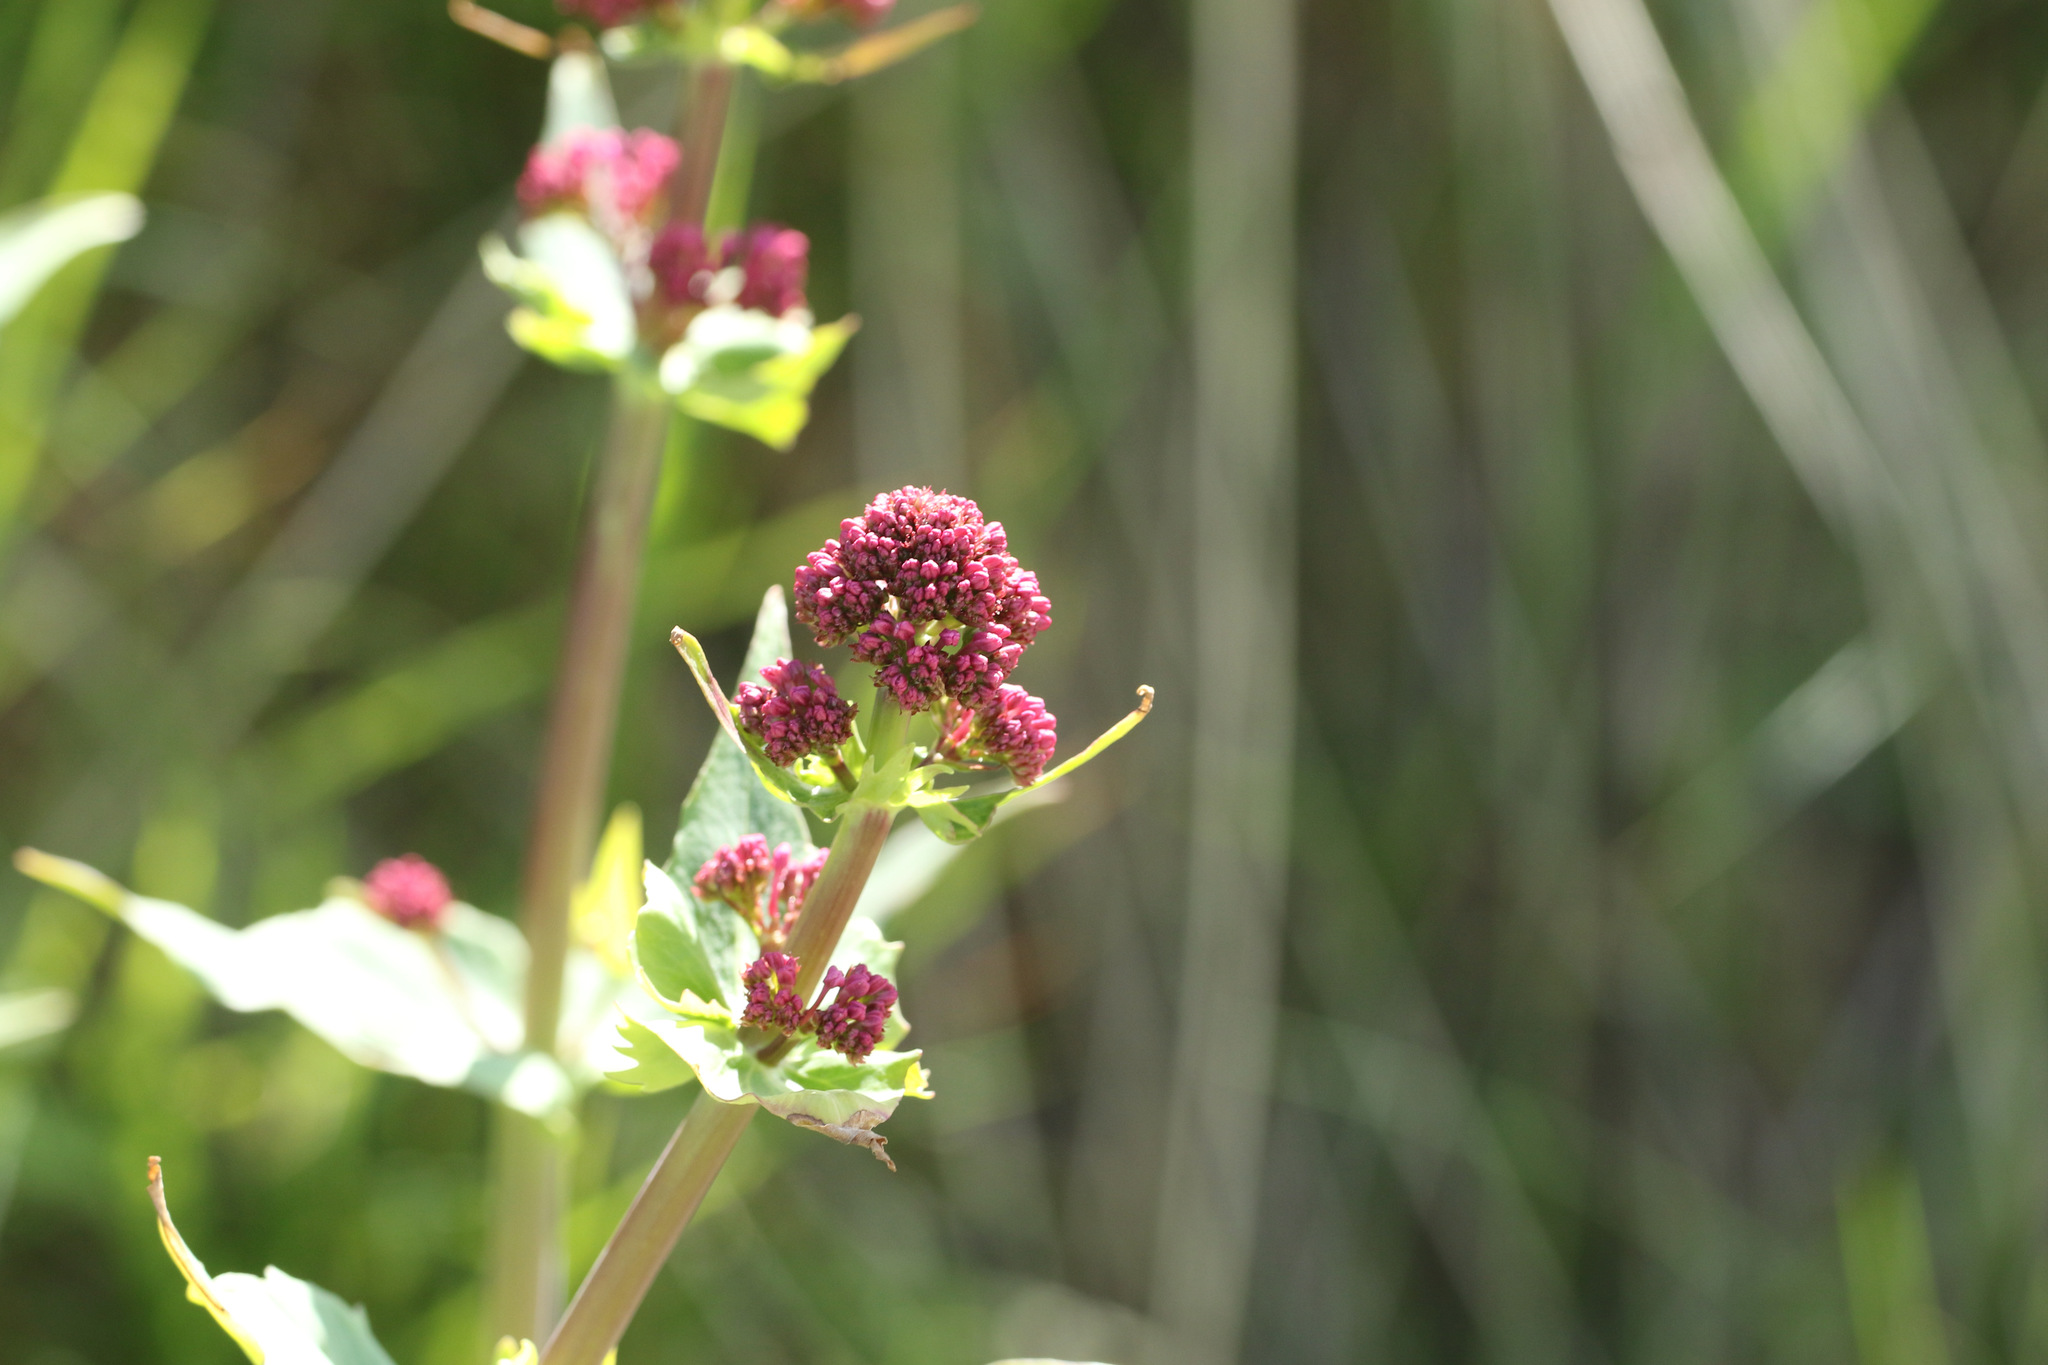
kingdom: Plantae
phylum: Tracheophyta
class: Magnoliopsida
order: Dipsacales
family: Caprifoliaceae
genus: Centranthus
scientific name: Centranthus ruber
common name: Red valerian
